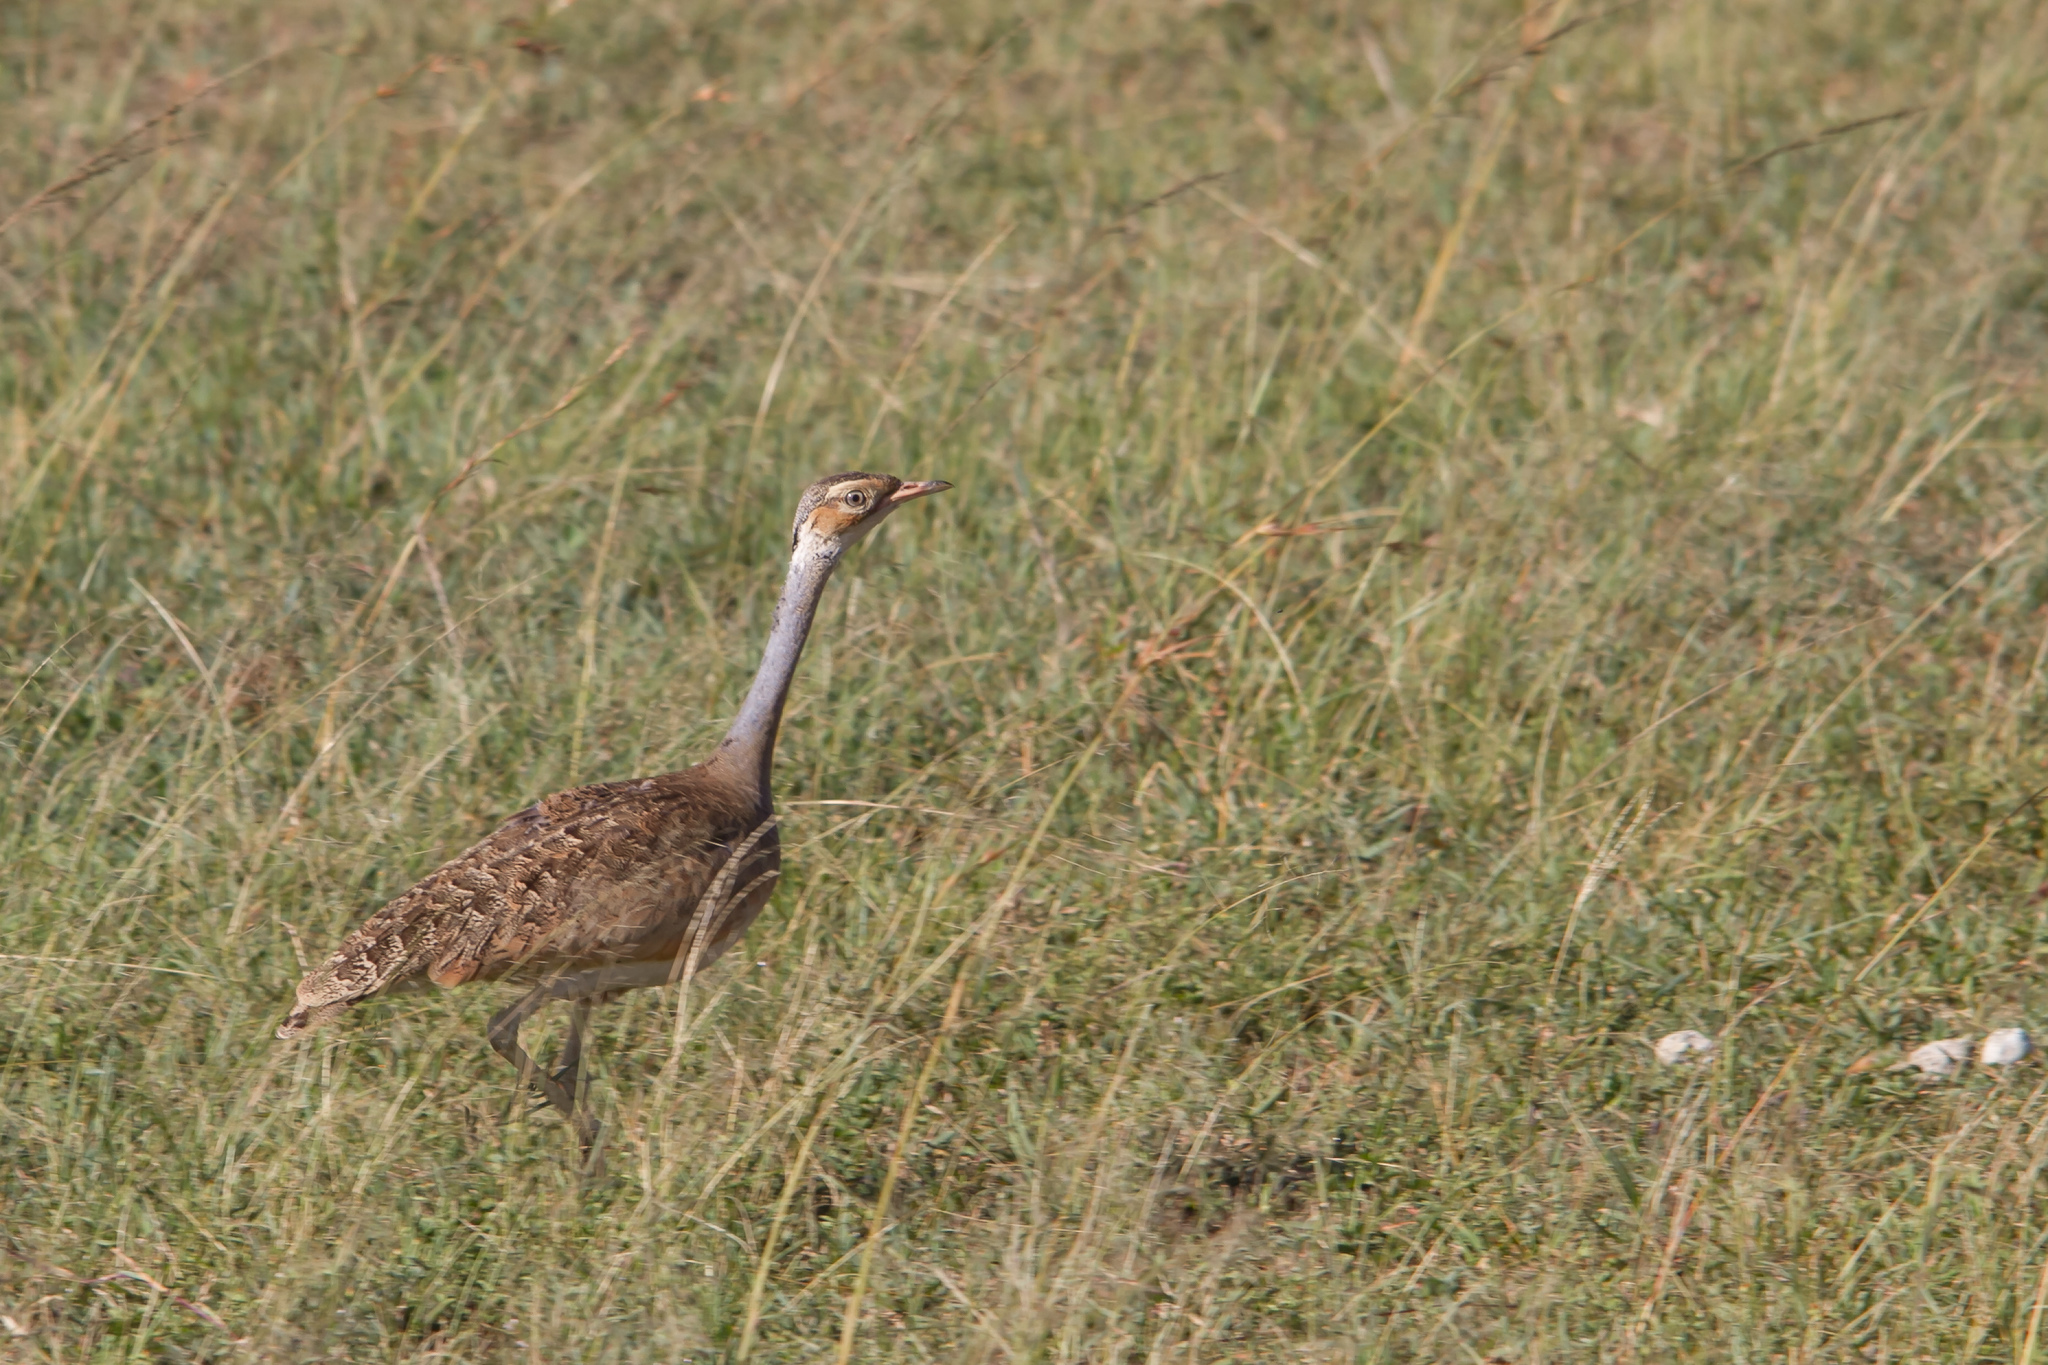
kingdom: Animalia
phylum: Chordata
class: Aves
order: Otidiformes
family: Otididae
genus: Eupodotis
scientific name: Eupodotis senegalensis
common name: White-bellied bustard
